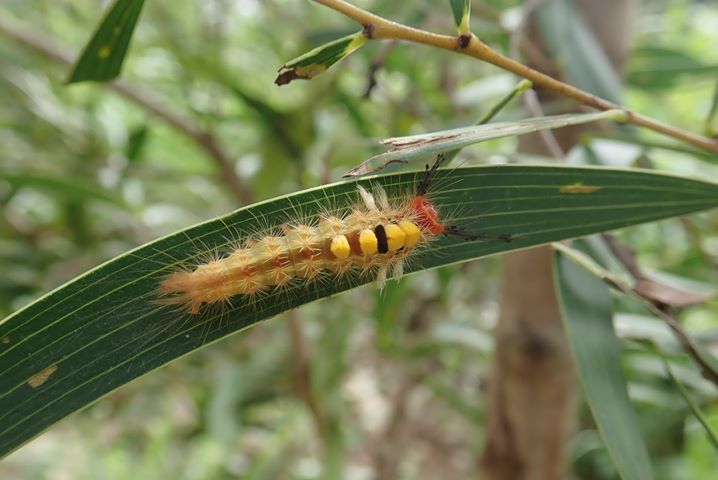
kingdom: Animalia
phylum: Arthropoda
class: Insecta
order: Lepidoptera
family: Erebidae
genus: Orgyia
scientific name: Orgyia postica
